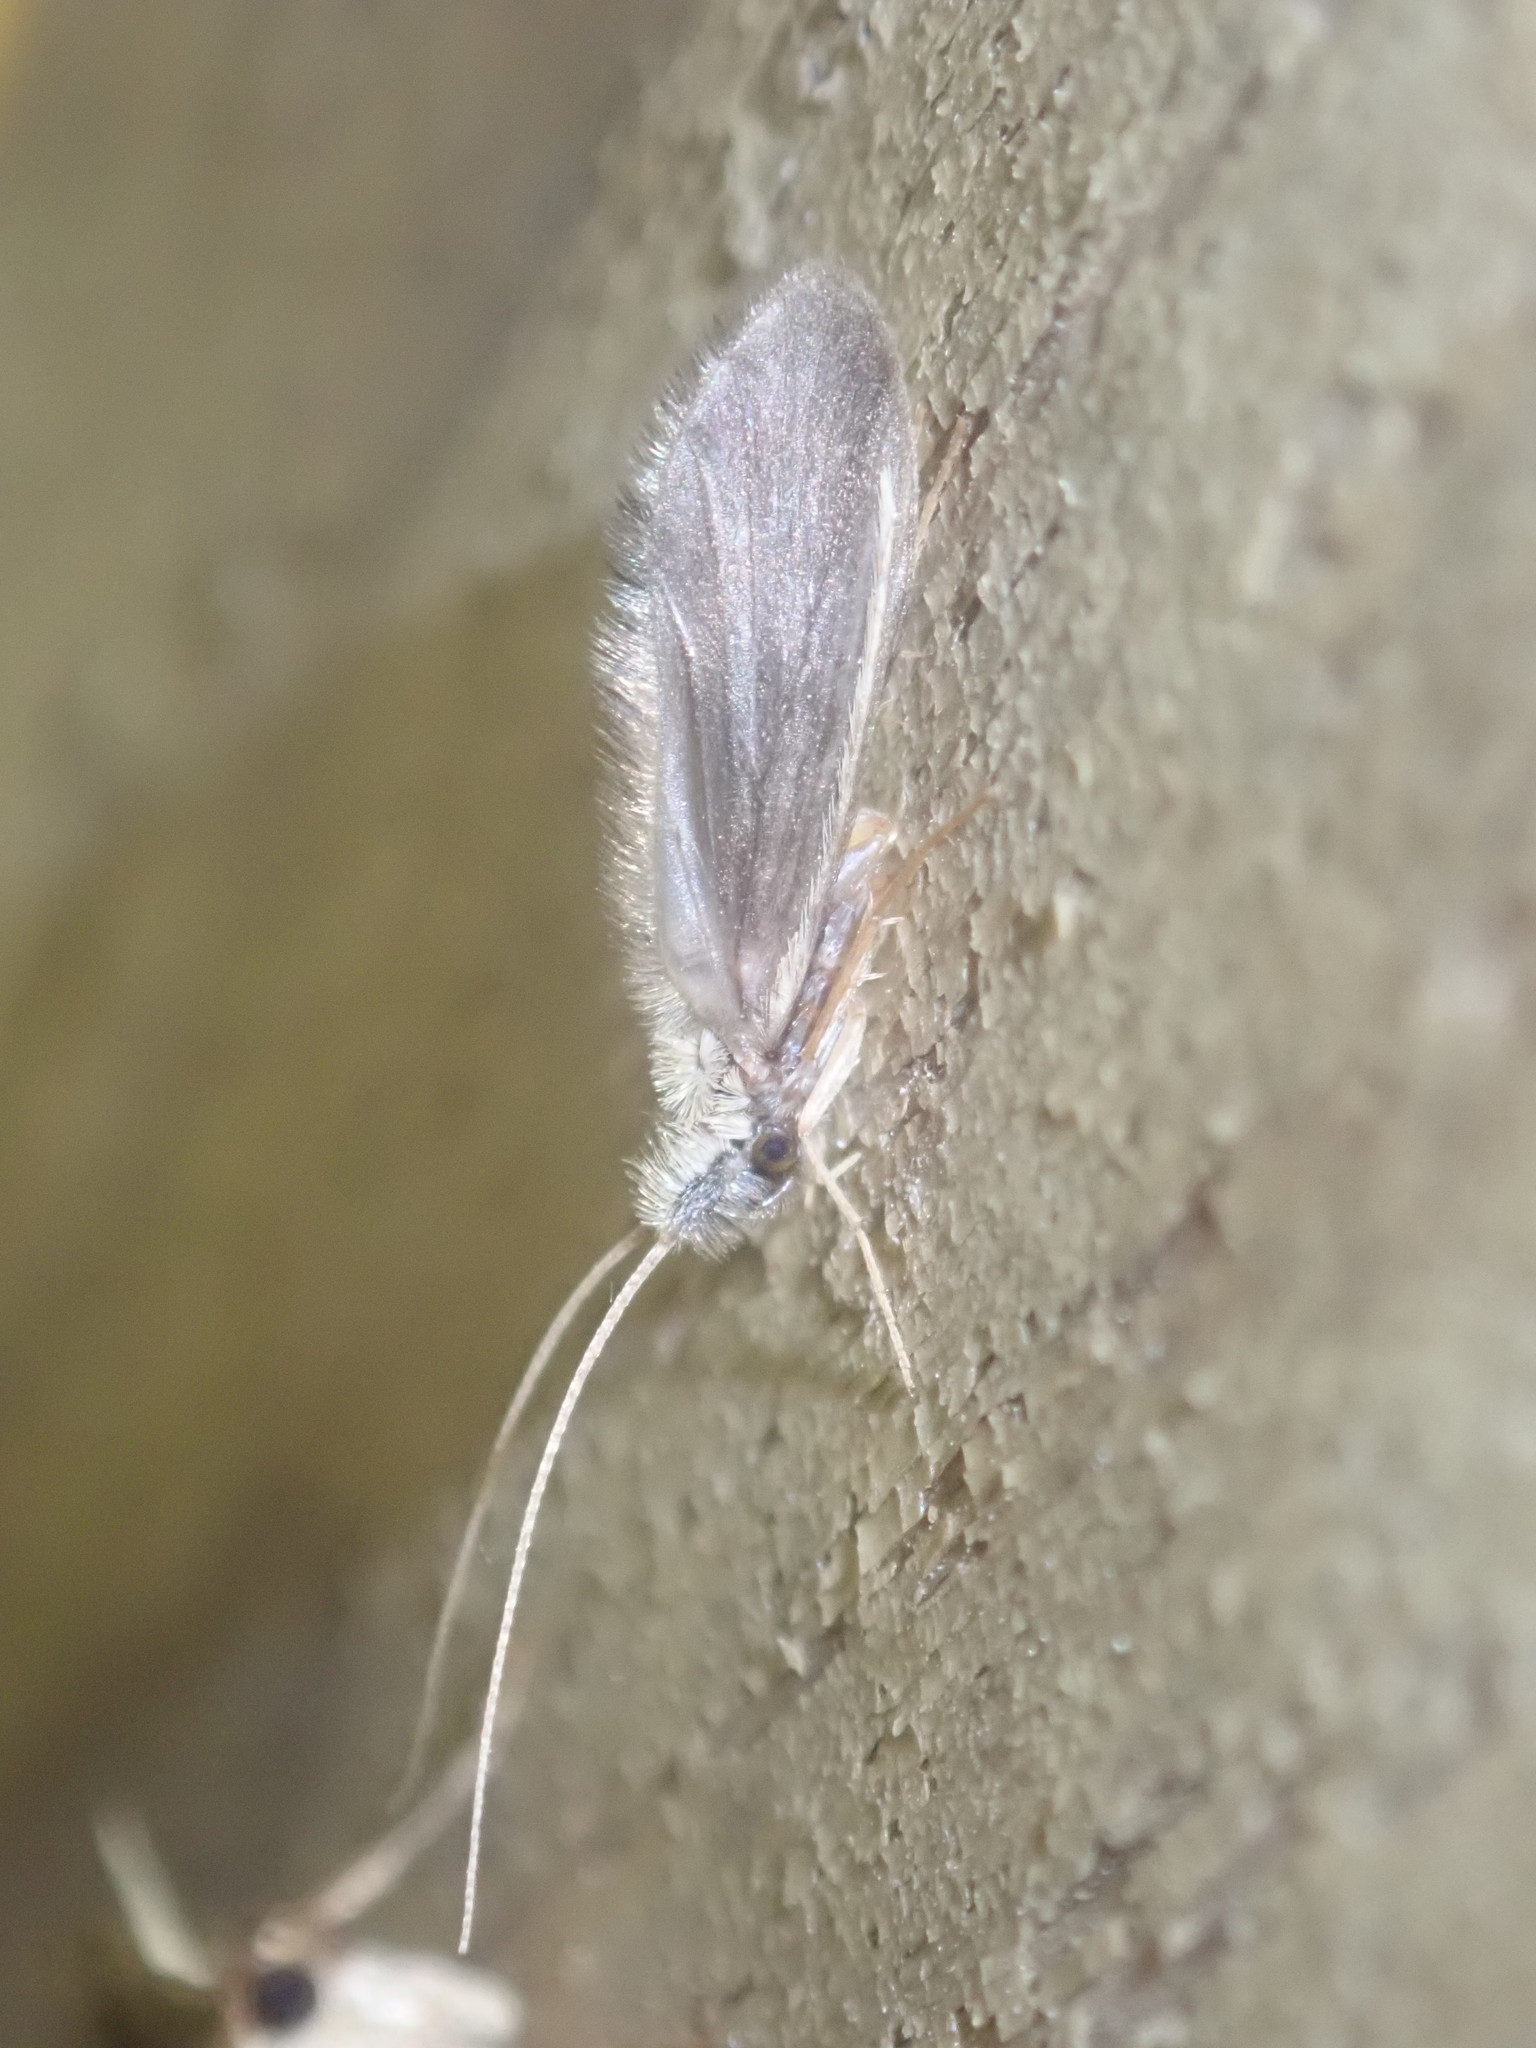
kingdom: Animalia
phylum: Arthropoda
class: Insecta
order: Trichoptera
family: Lepidostomatidae
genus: Lasiocephala
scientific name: Lasiocephala basalis
